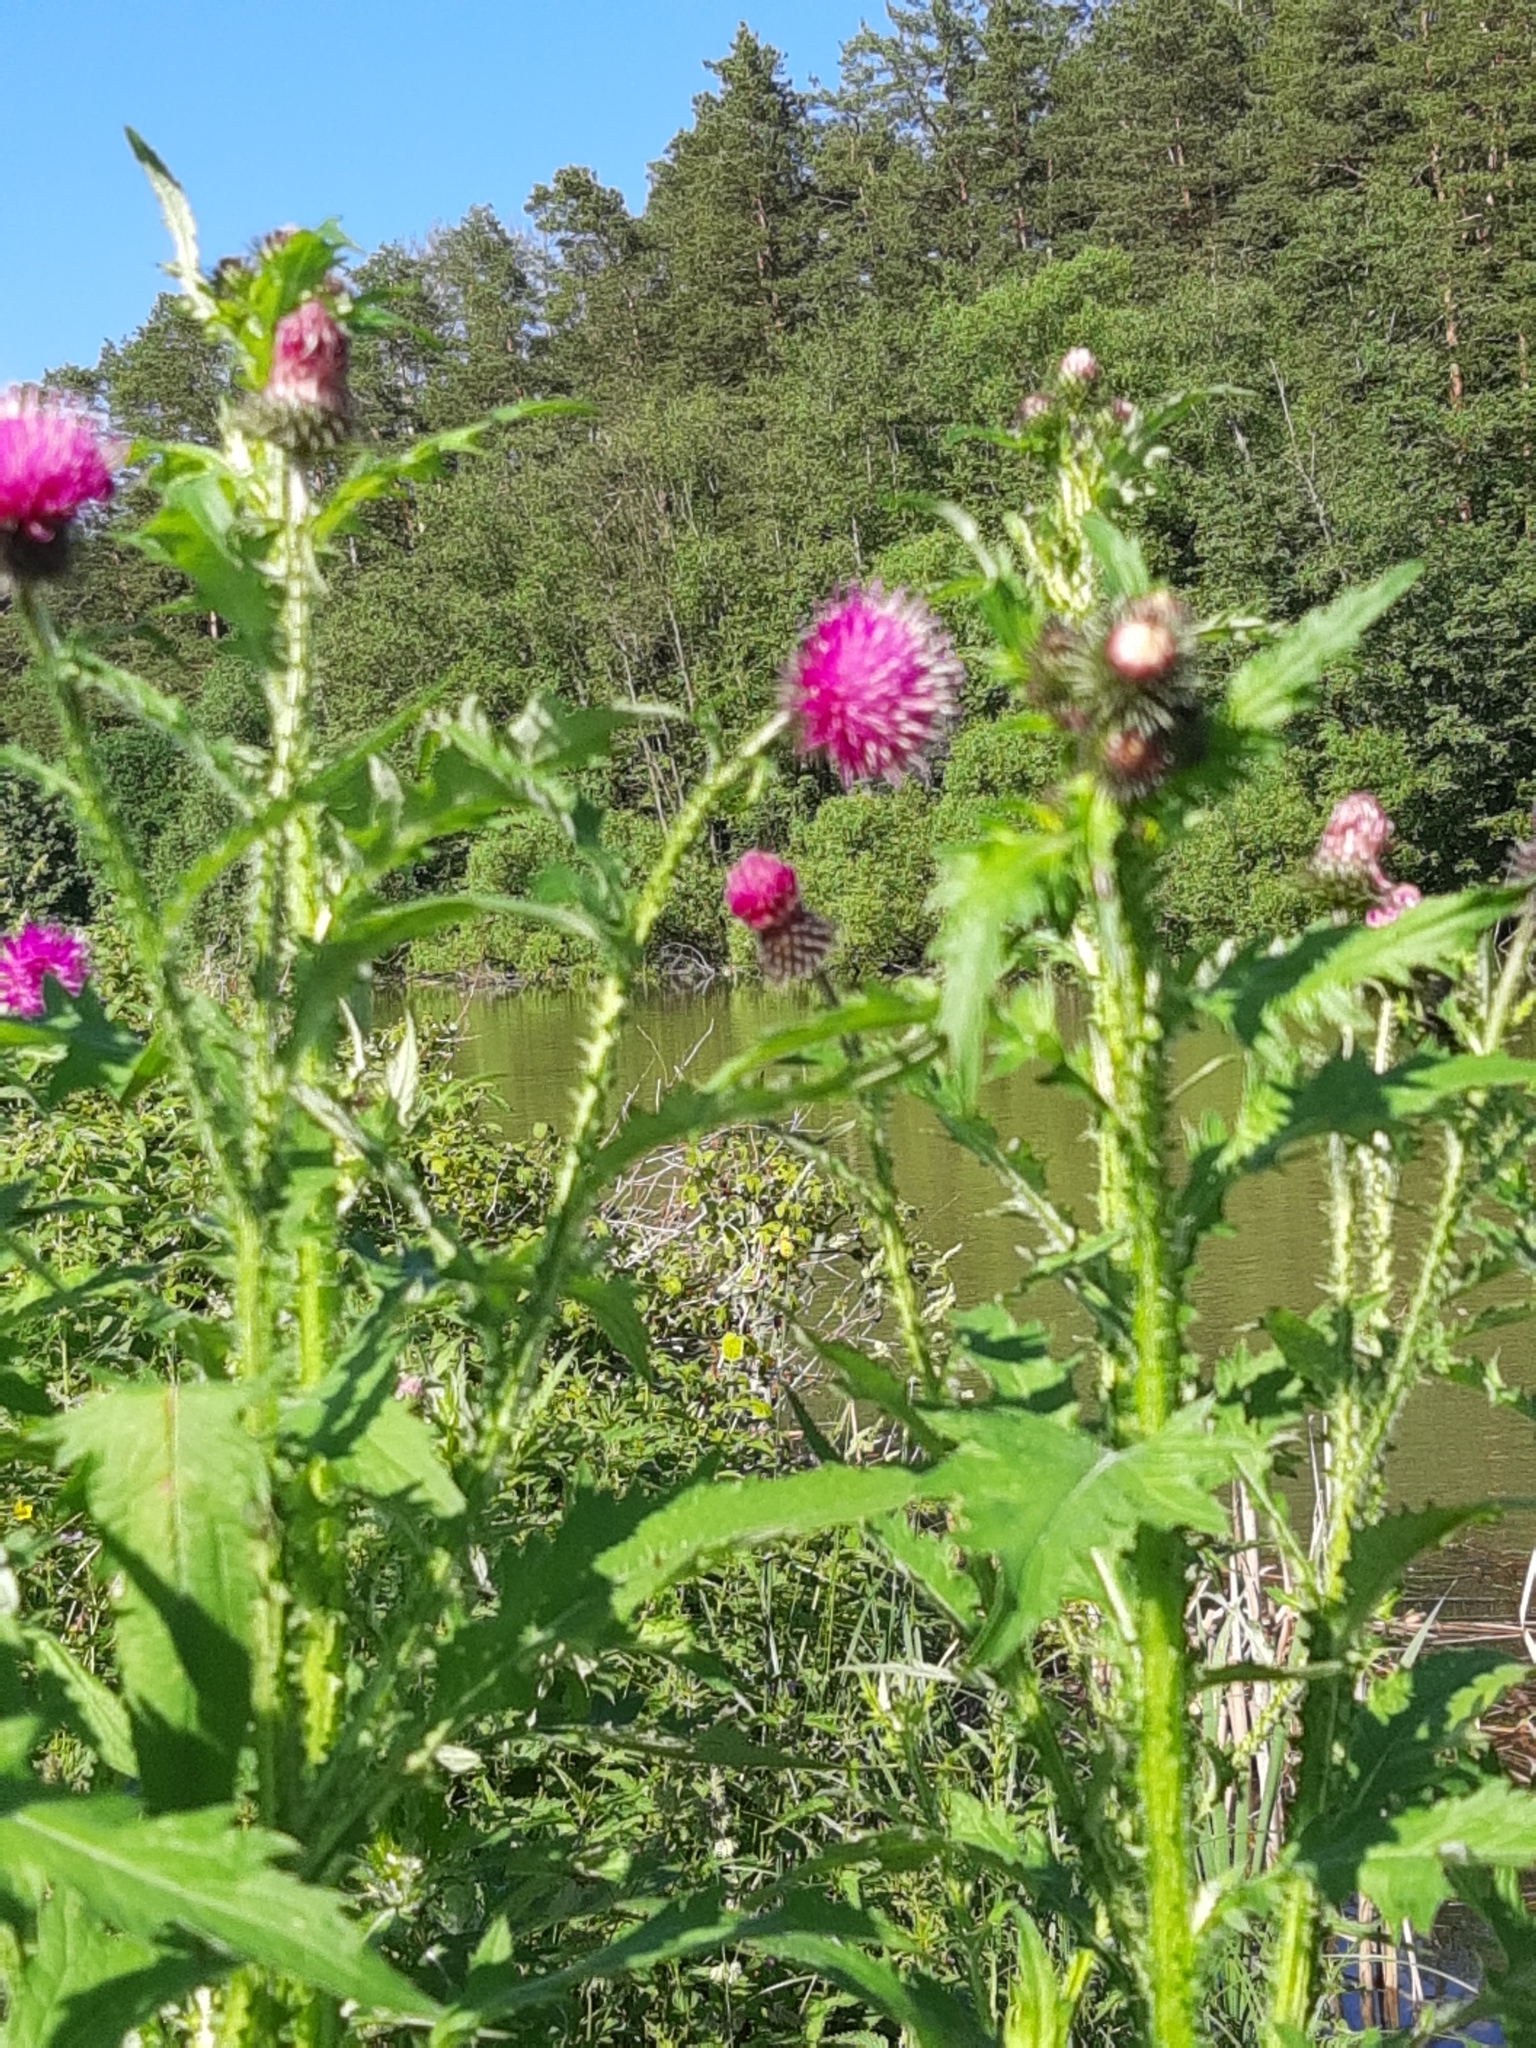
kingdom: Plantae
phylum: Tracheophyta
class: Magnoliopsida
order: Asterales
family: Asteraceae
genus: Carduus
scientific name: Carduus crispus
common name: Welted thistle
